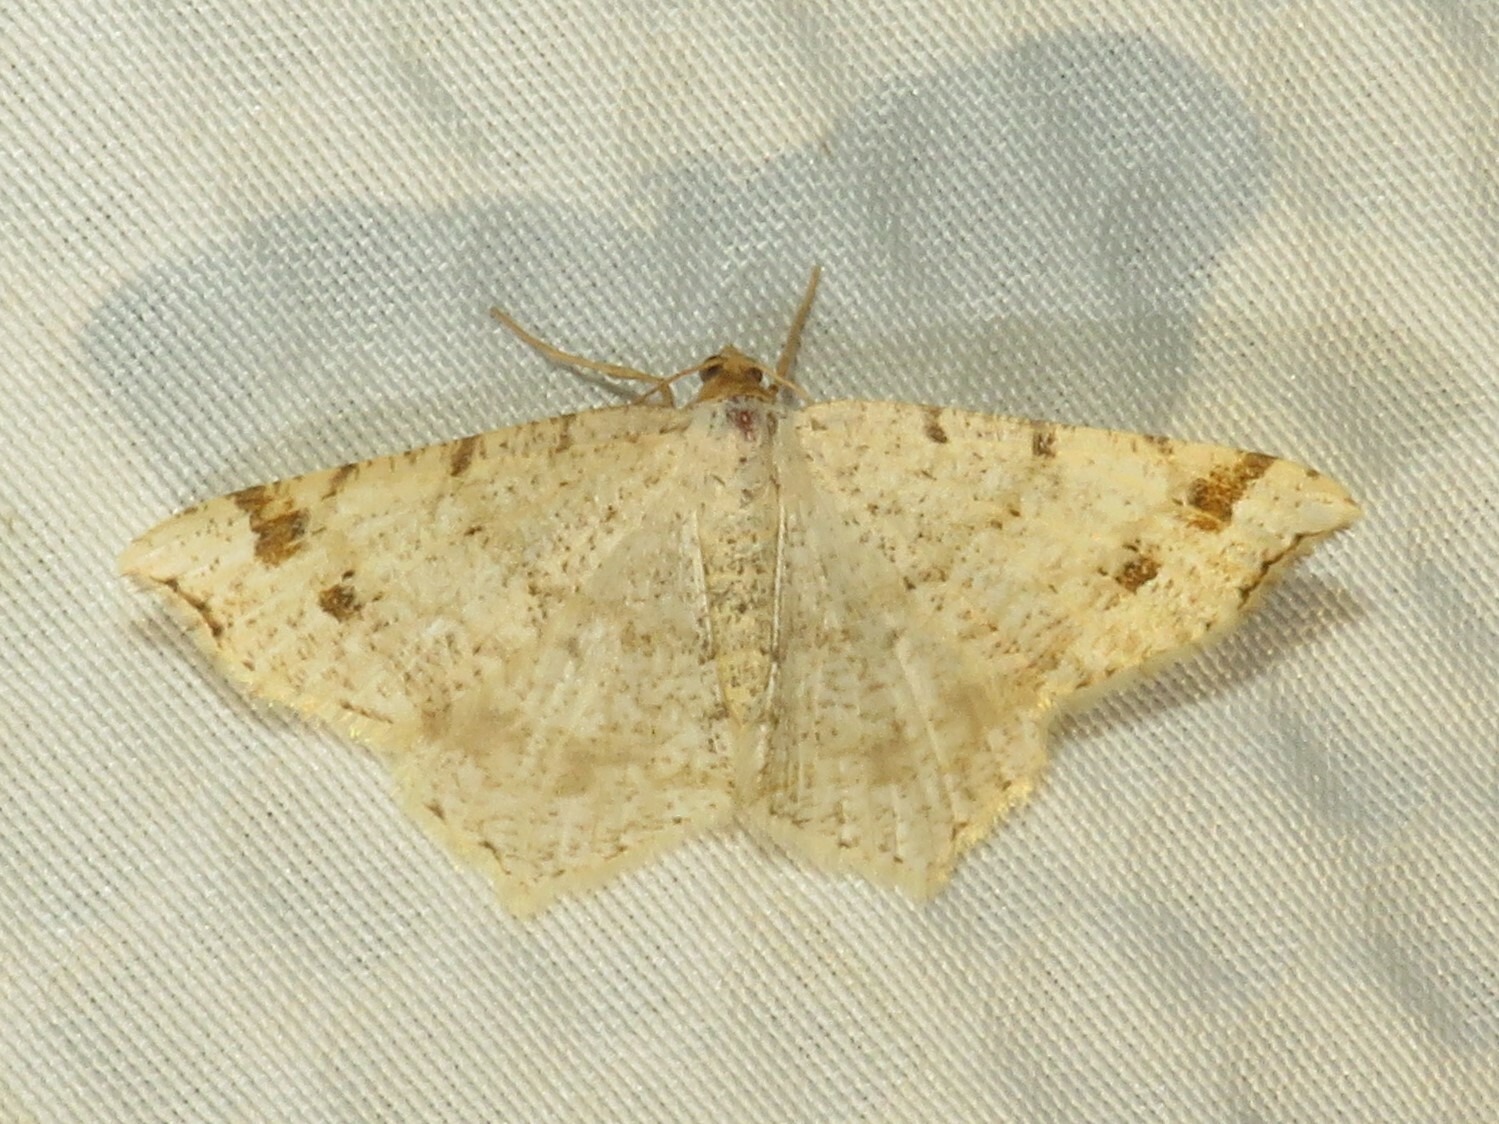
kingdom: Animalia
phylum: Arthropoda
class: Insecta
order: Lepidoptera
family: Geometridae
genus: Macaria
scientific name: Macaria bisignata
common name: Red-headed inchworm
